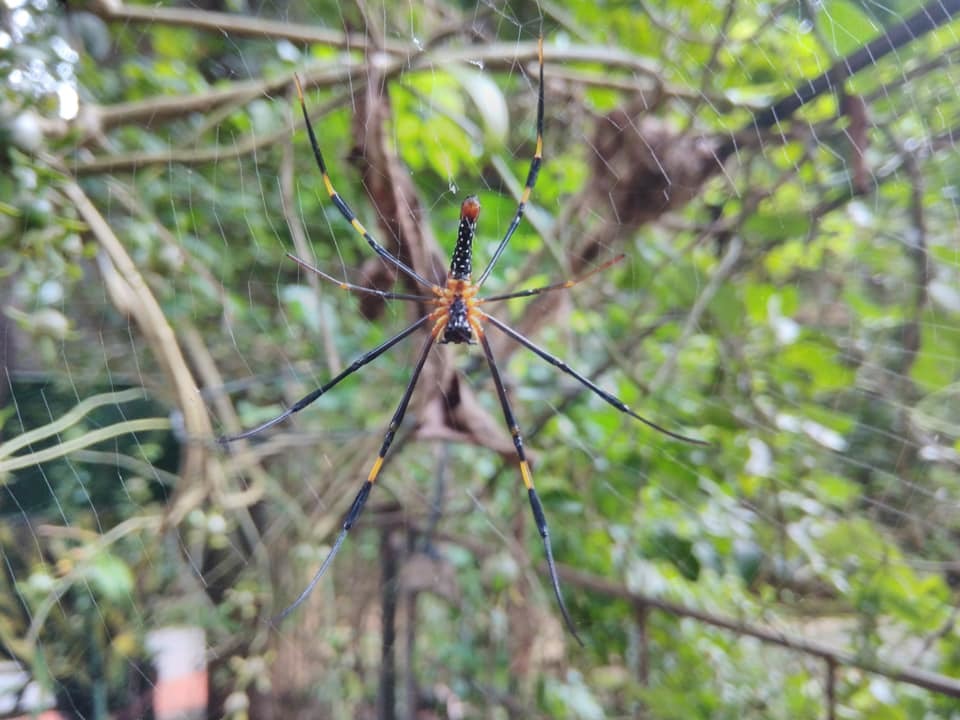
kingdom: Animalia
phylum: Arthropoda
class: Arachnida
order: Araneae
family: Araneidae
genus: Nephila
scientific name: Nephila pilipes
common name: Giant golden orb weaver
